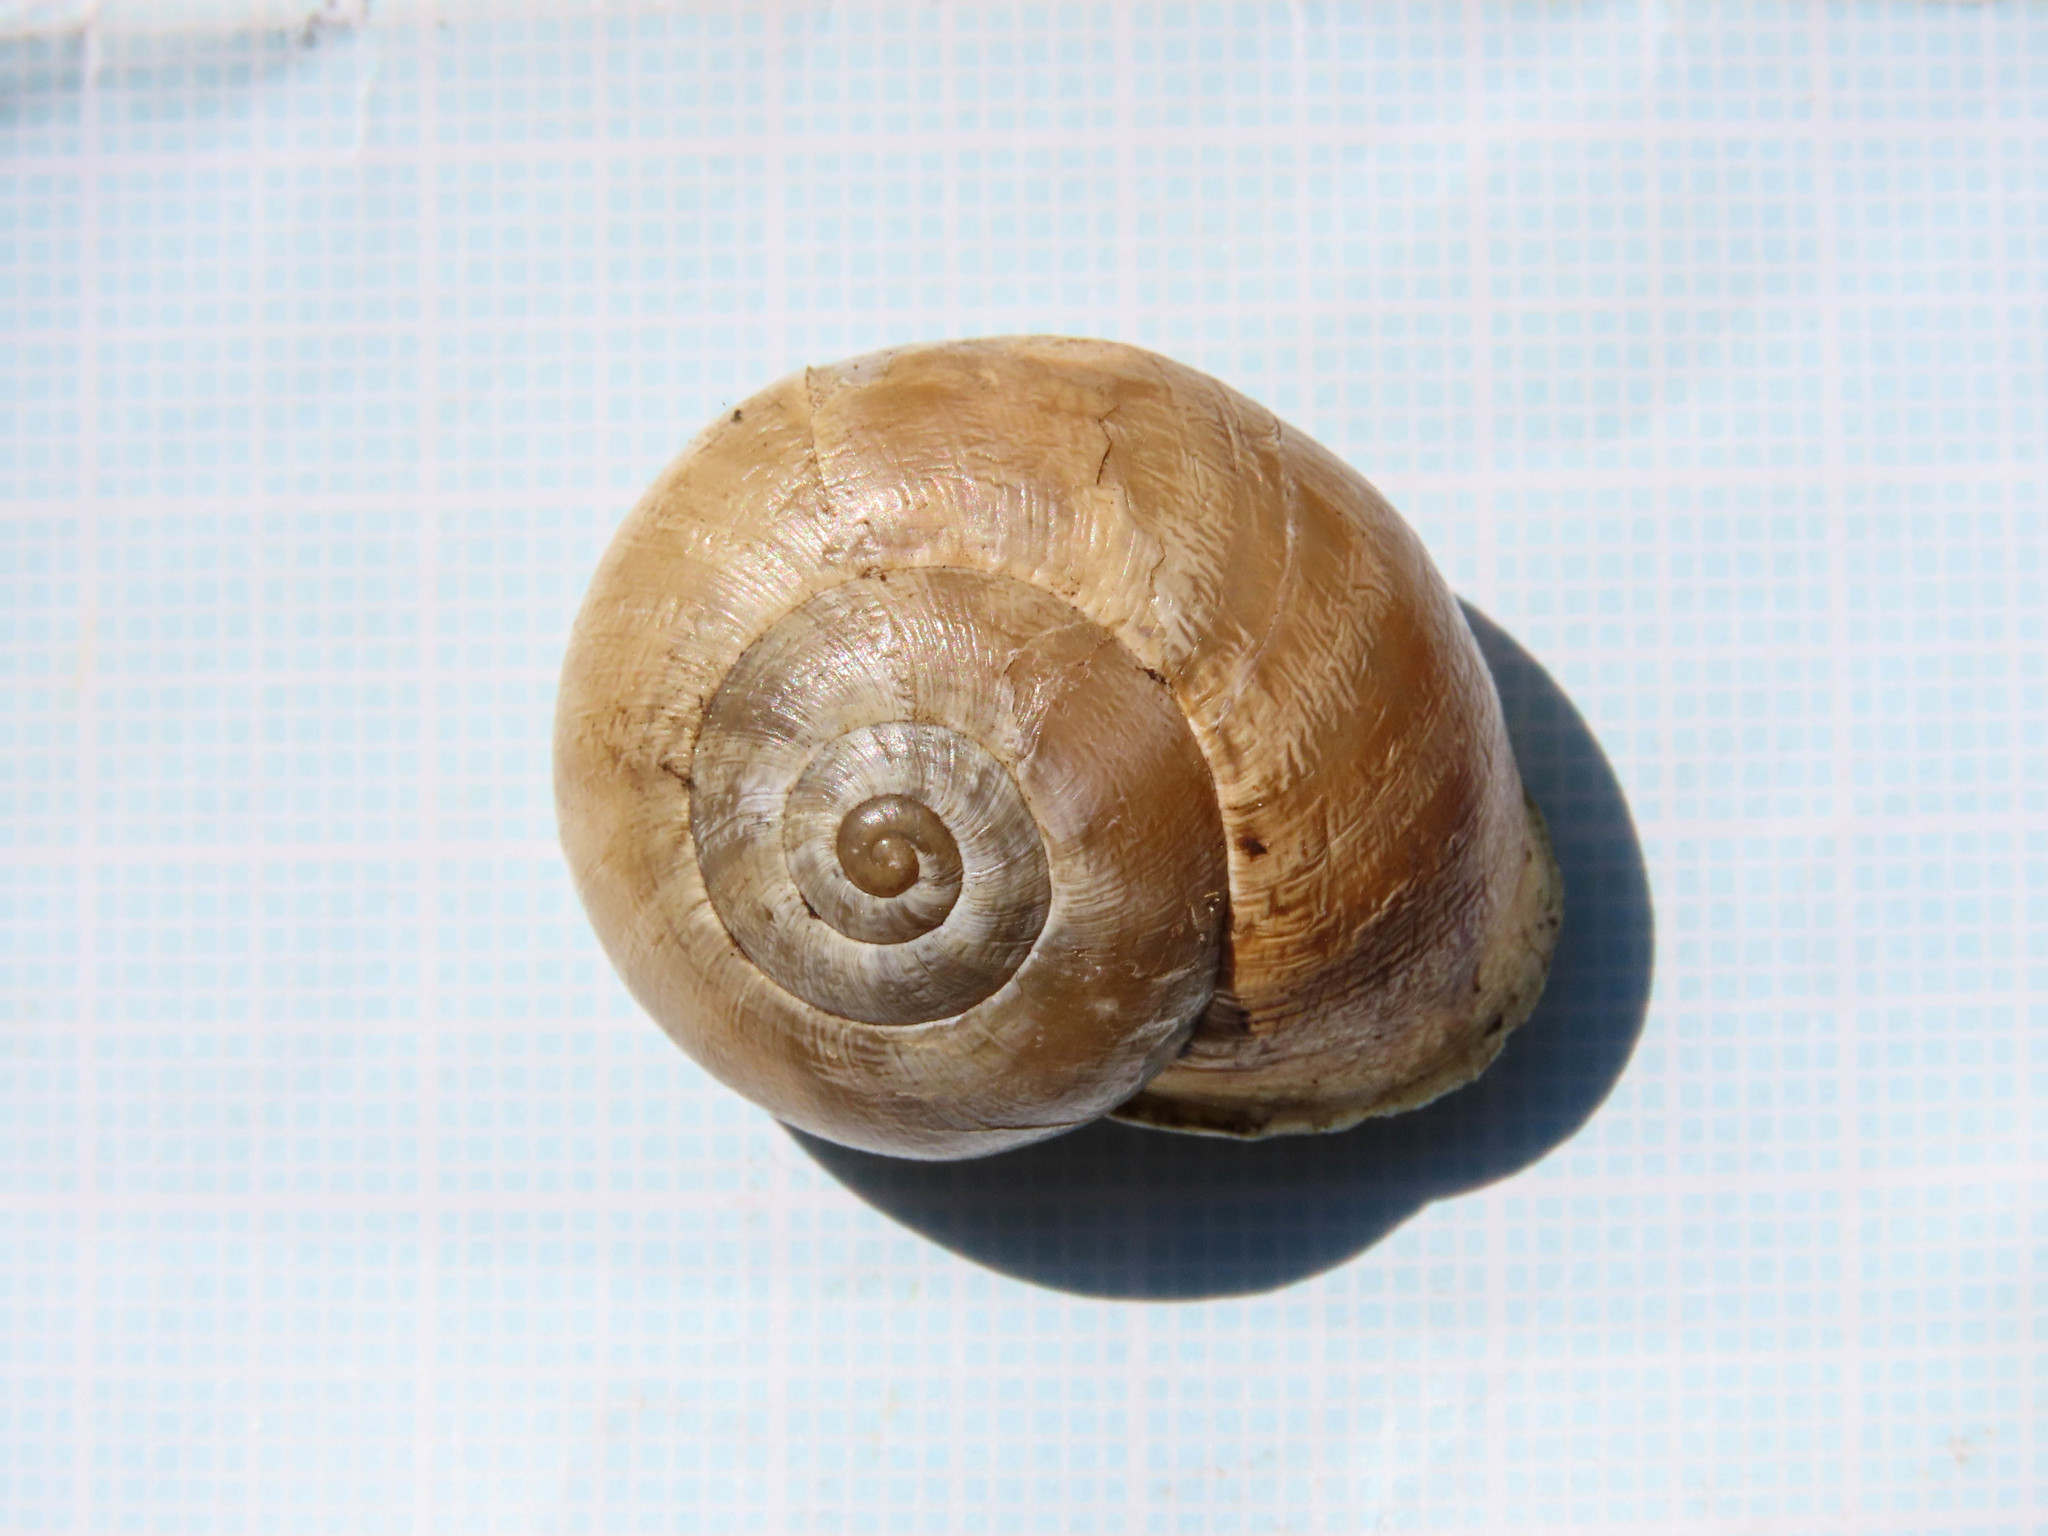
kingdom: Animalia
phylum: Mollusca
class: Gastropoda
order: Stylommatophora
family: Helicidae
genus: Eobania
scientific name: Eobania vermiculata
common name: Chocolateband snail
